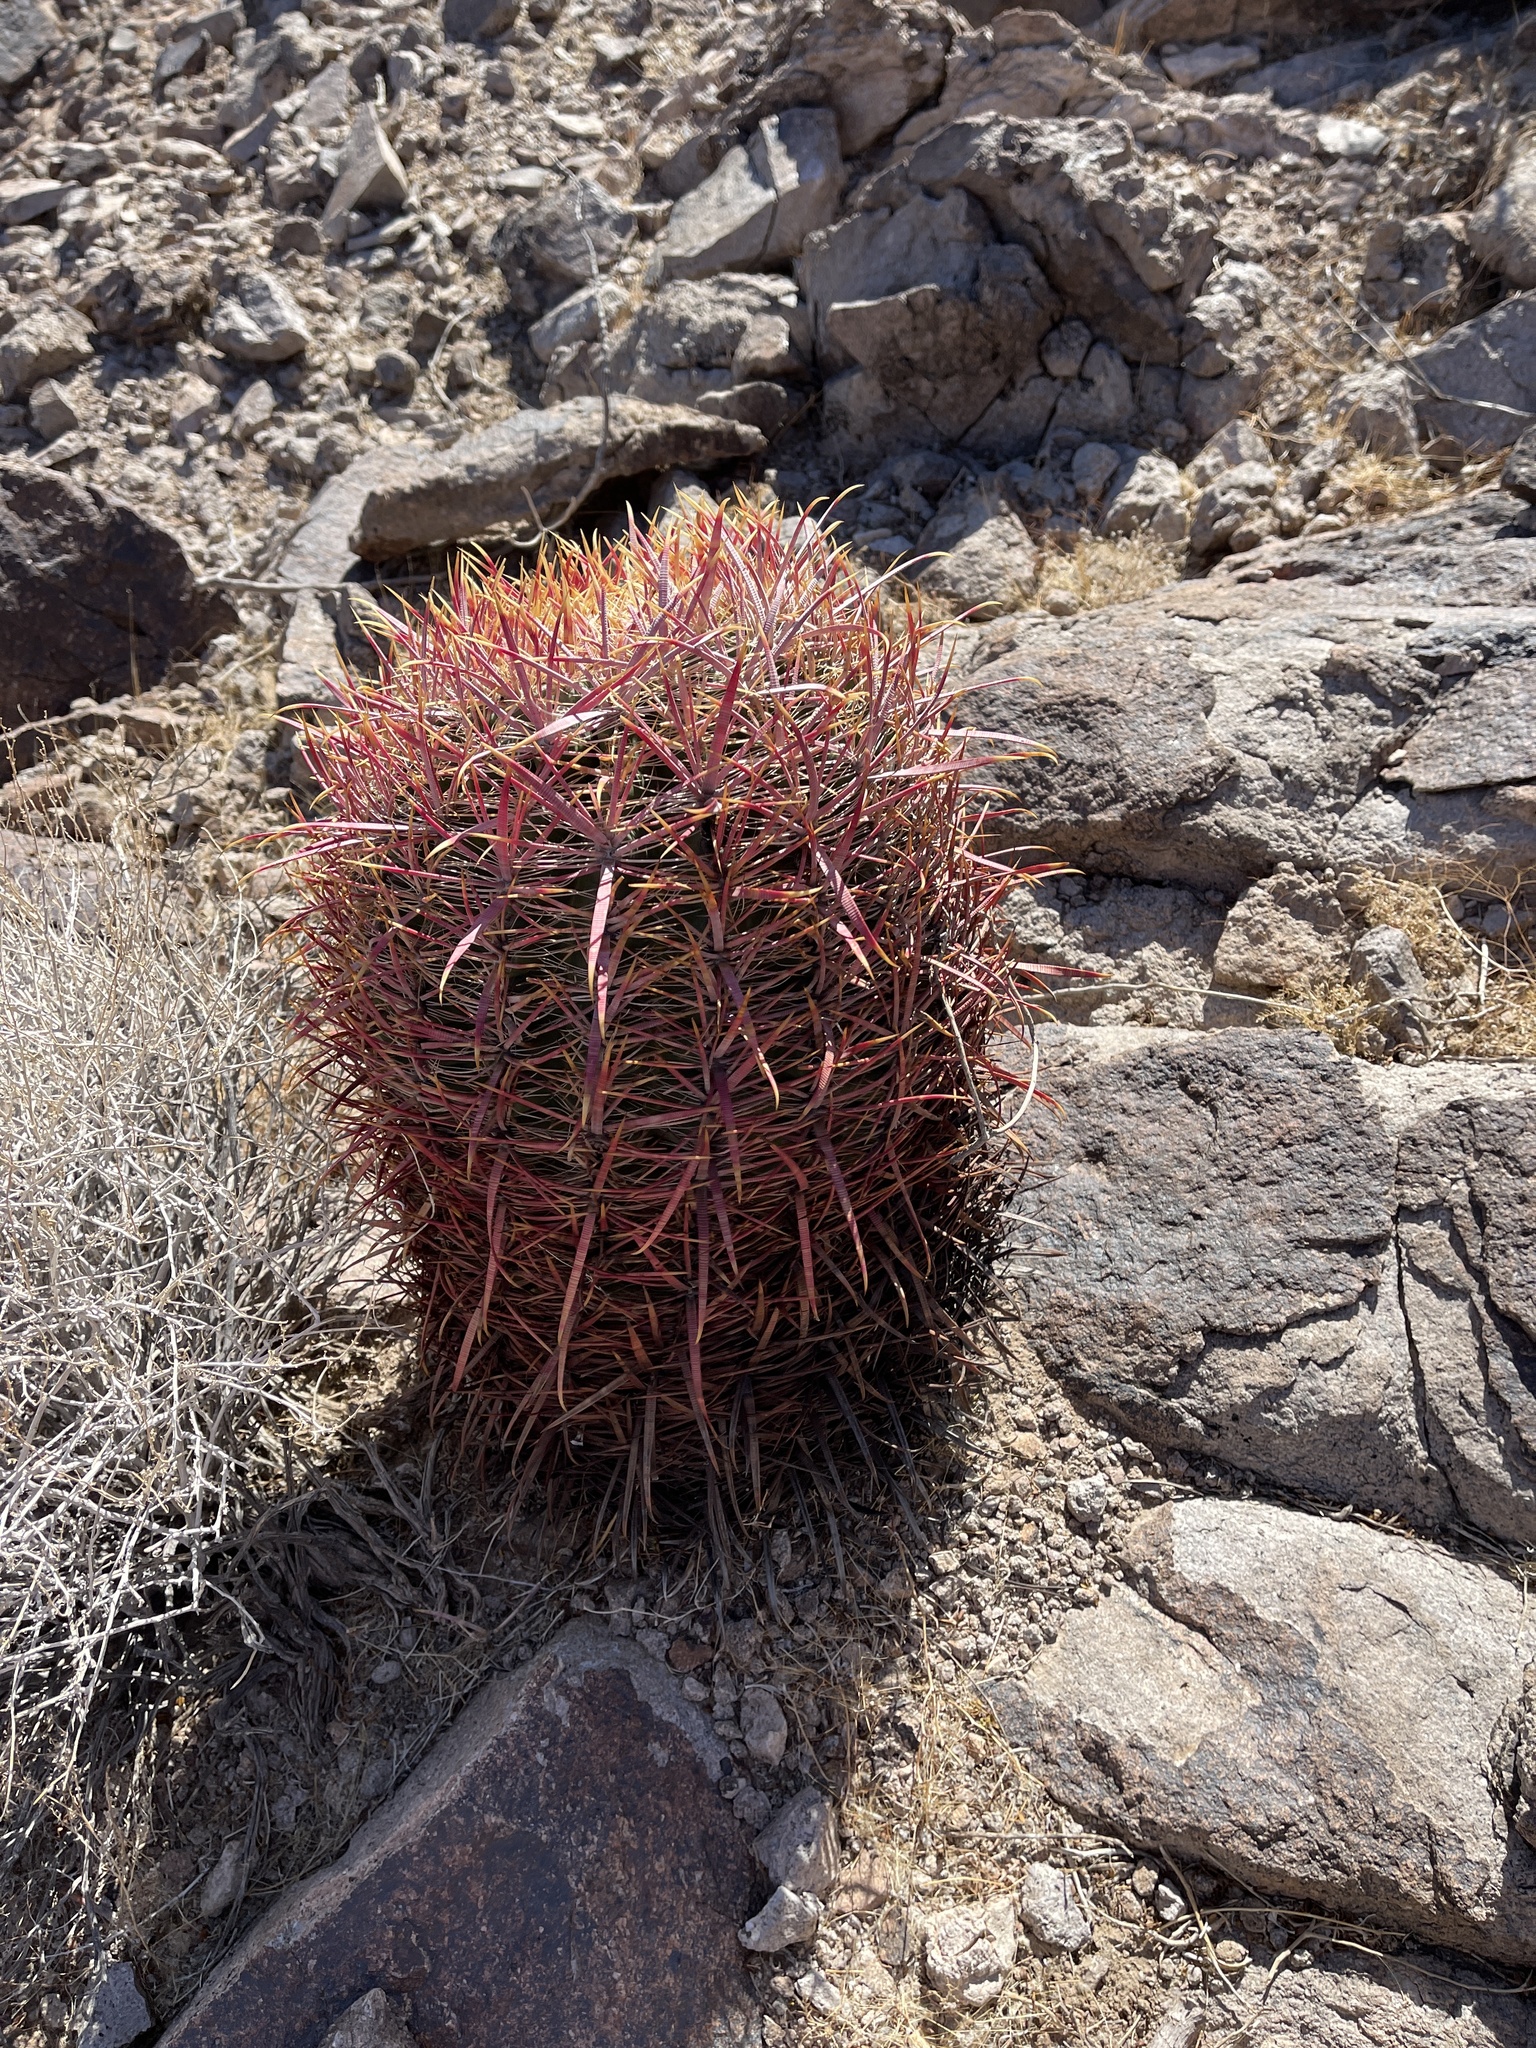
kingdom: Plantae
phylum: Tracheophyta
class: Magnoliopsida
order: Caryophyllales
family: Cactaceae
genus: Ferocactus
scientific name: Ferocactus cylindraceus
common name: California barrel cactus
